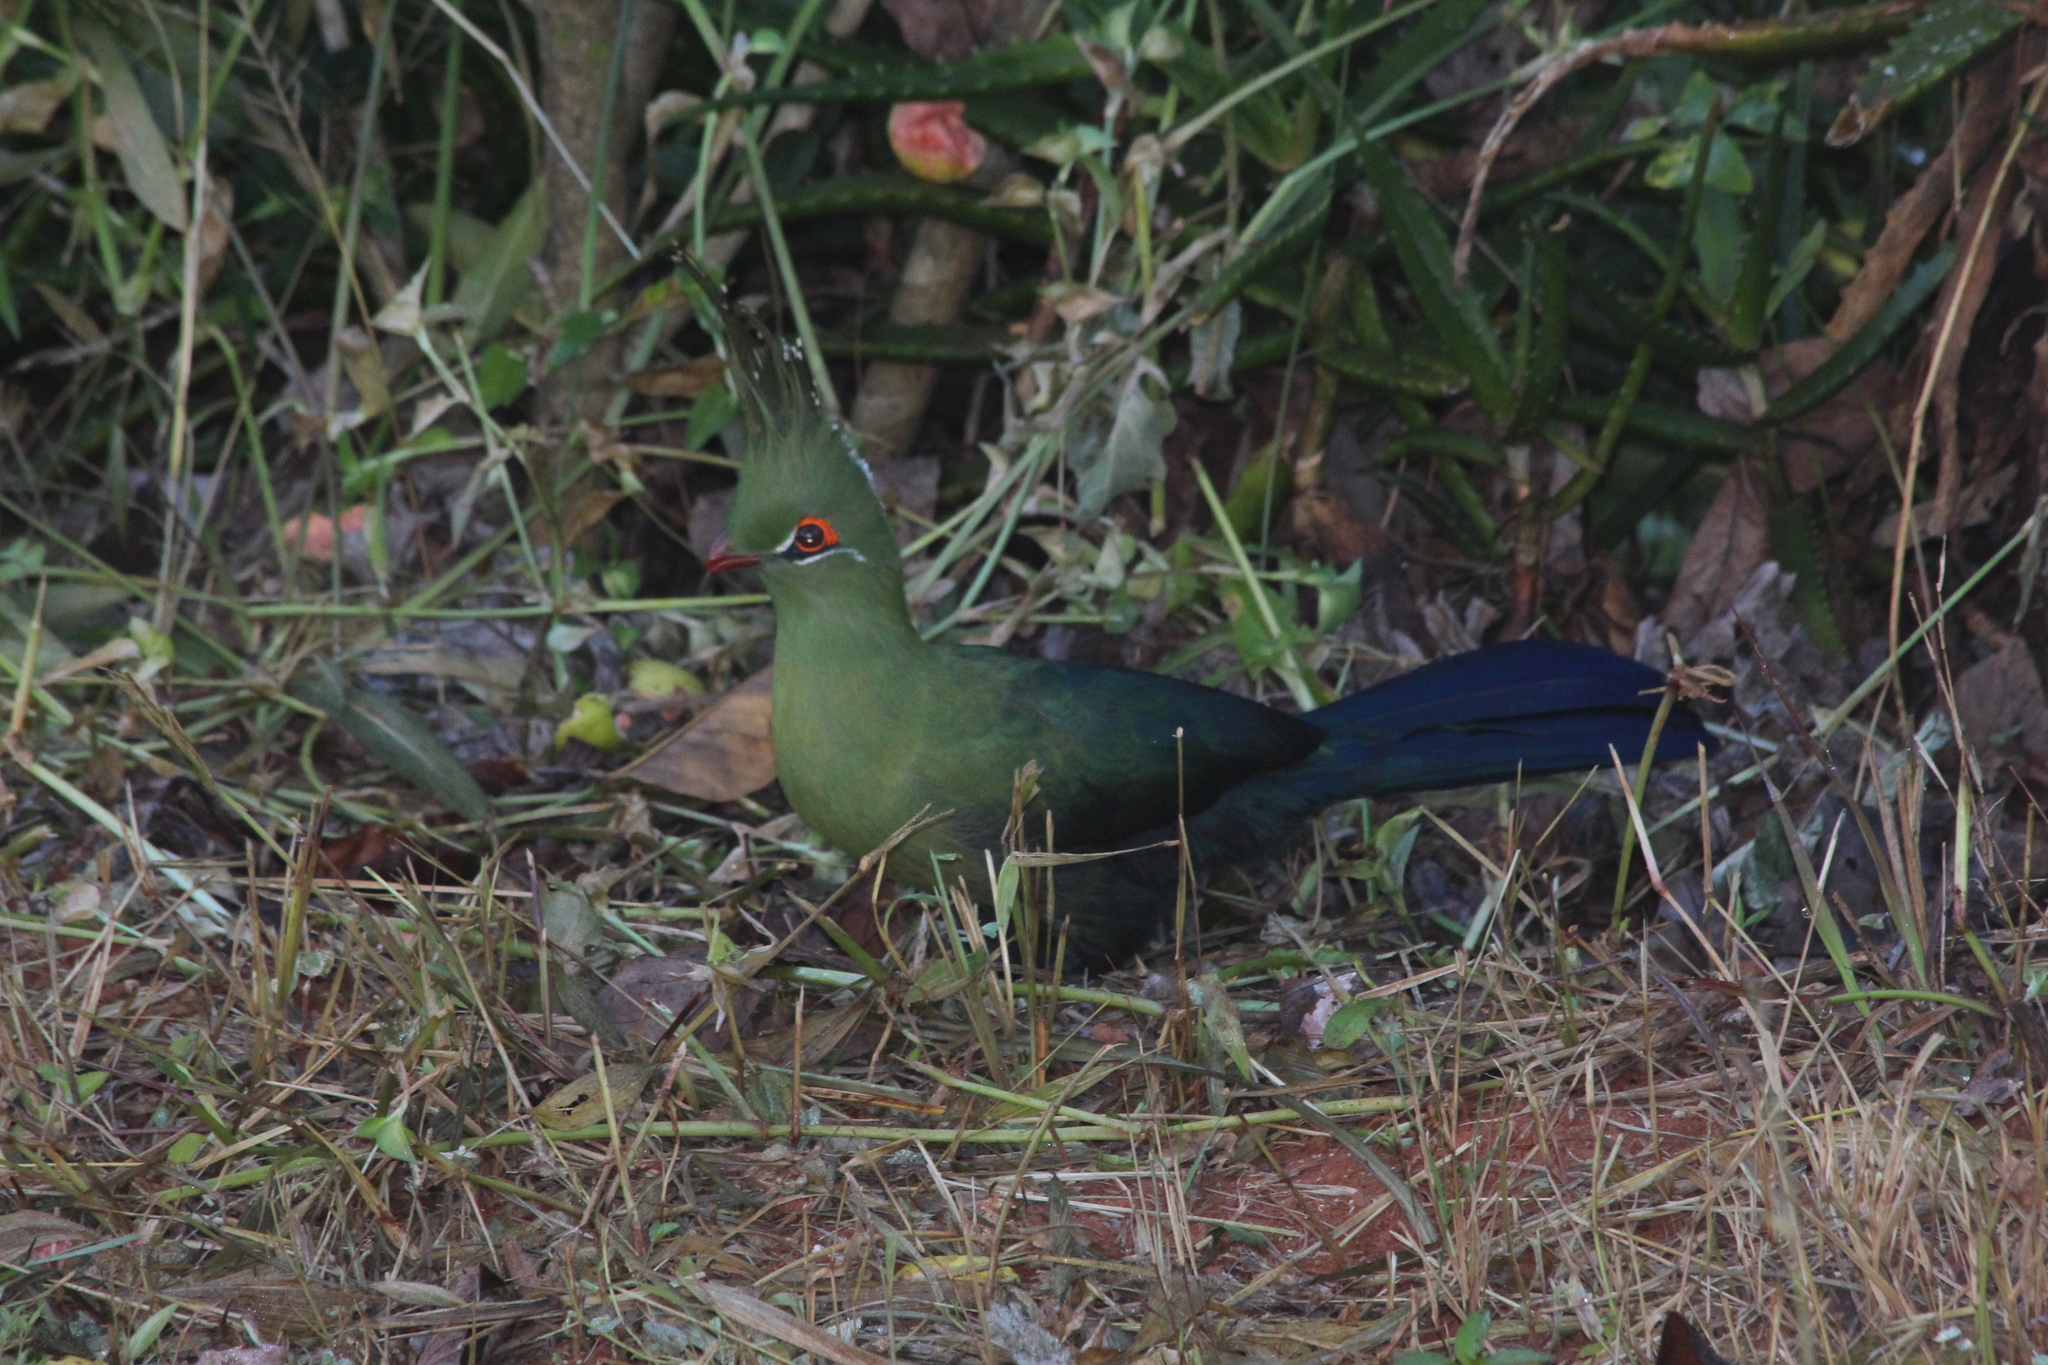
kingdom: Animalia
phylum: Chordata
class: Aves
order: Musophagiformes
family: Musophagidae
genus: Tauraco
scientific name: Tauraco schalowi
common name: Schalow's turaco
